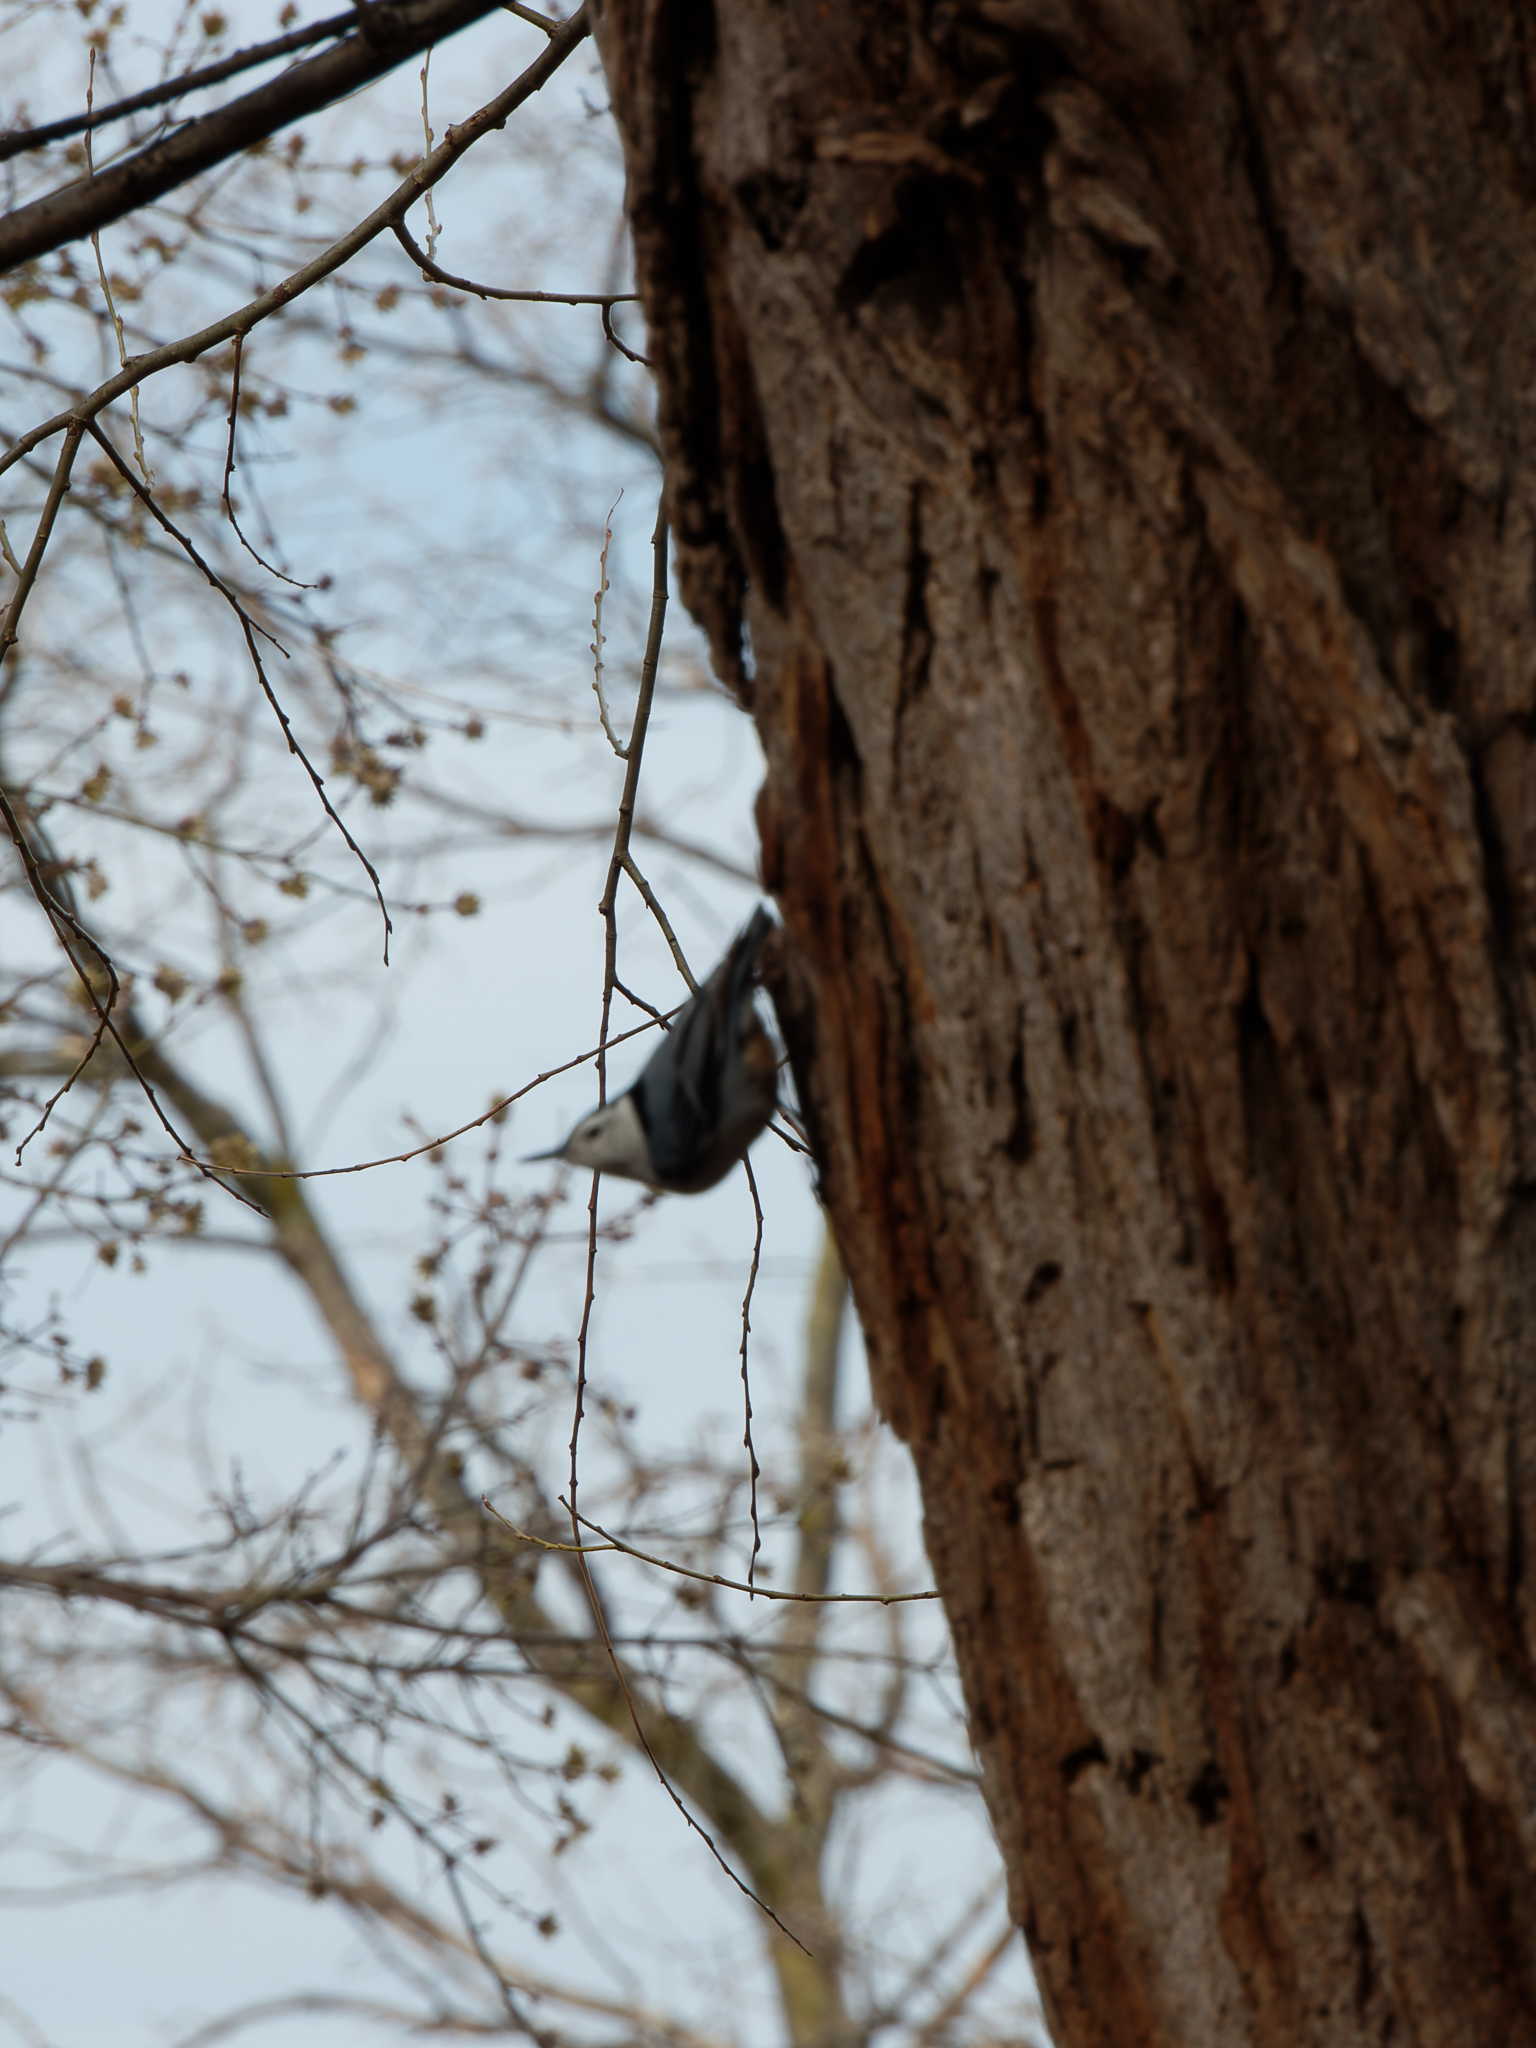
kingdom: Animalia
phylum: Chordata
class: Aves
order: Passeriformes
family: Sittidae
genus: Sitta
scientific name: Sitta carolinensis
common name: White-breasted nuthatch
